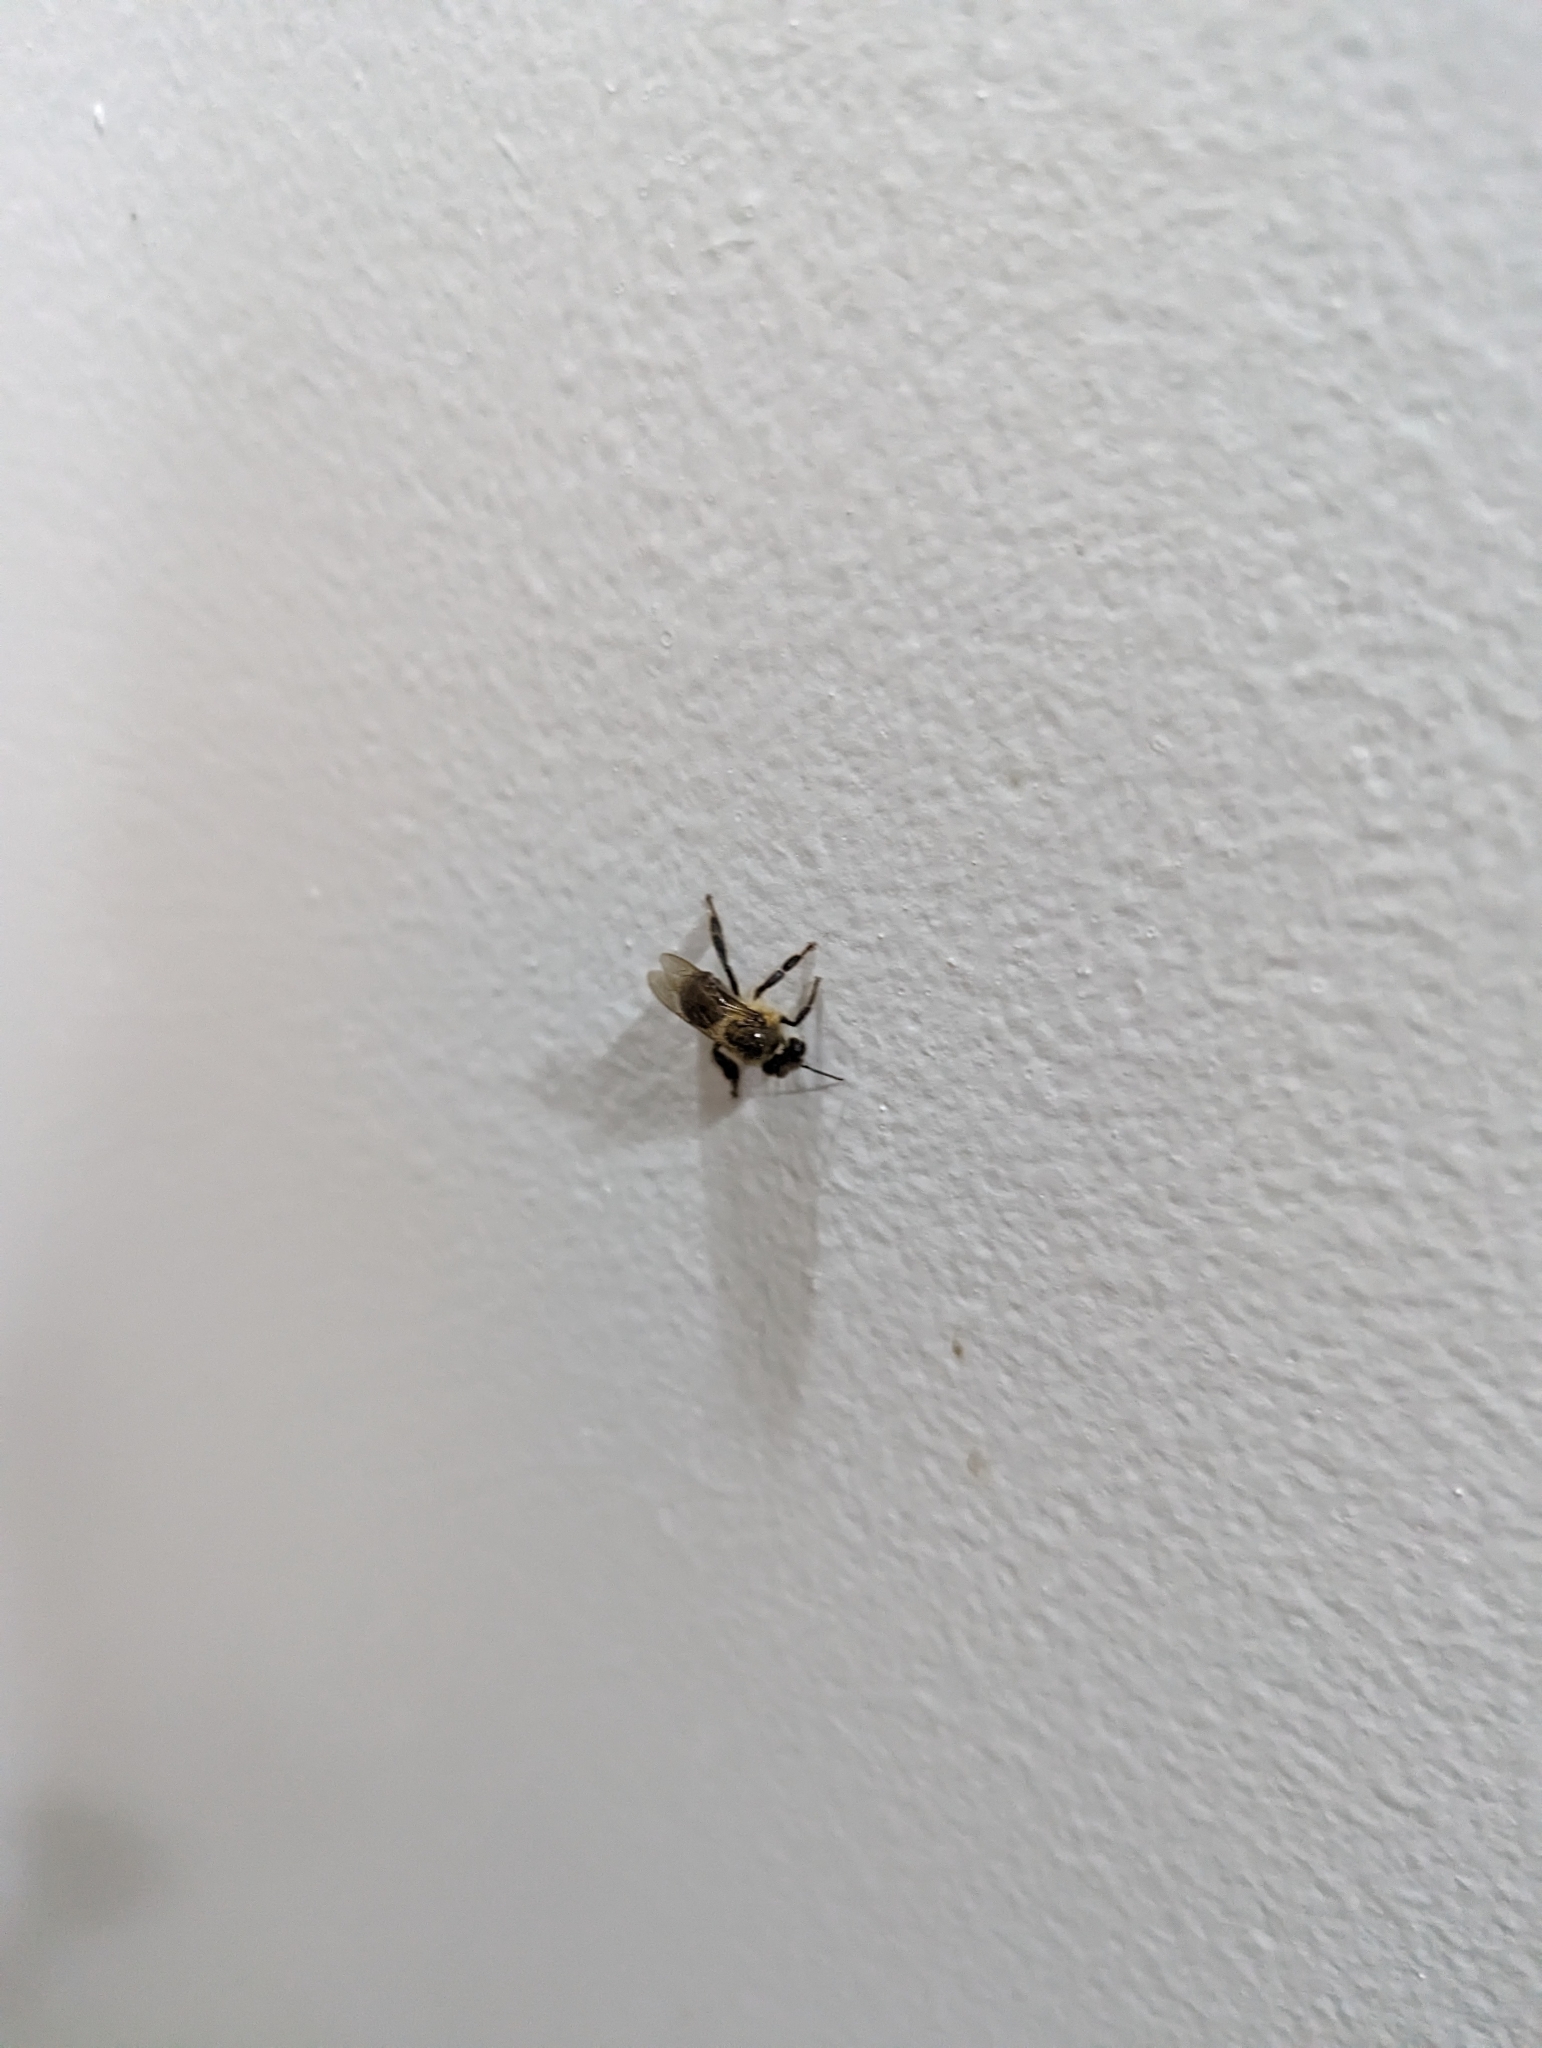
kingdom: Animalia
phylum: Arthropoda
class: Insecta
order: Hymenoptera
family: Apidae
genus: Apis
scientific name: Apis mellifera
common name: Honey bee
